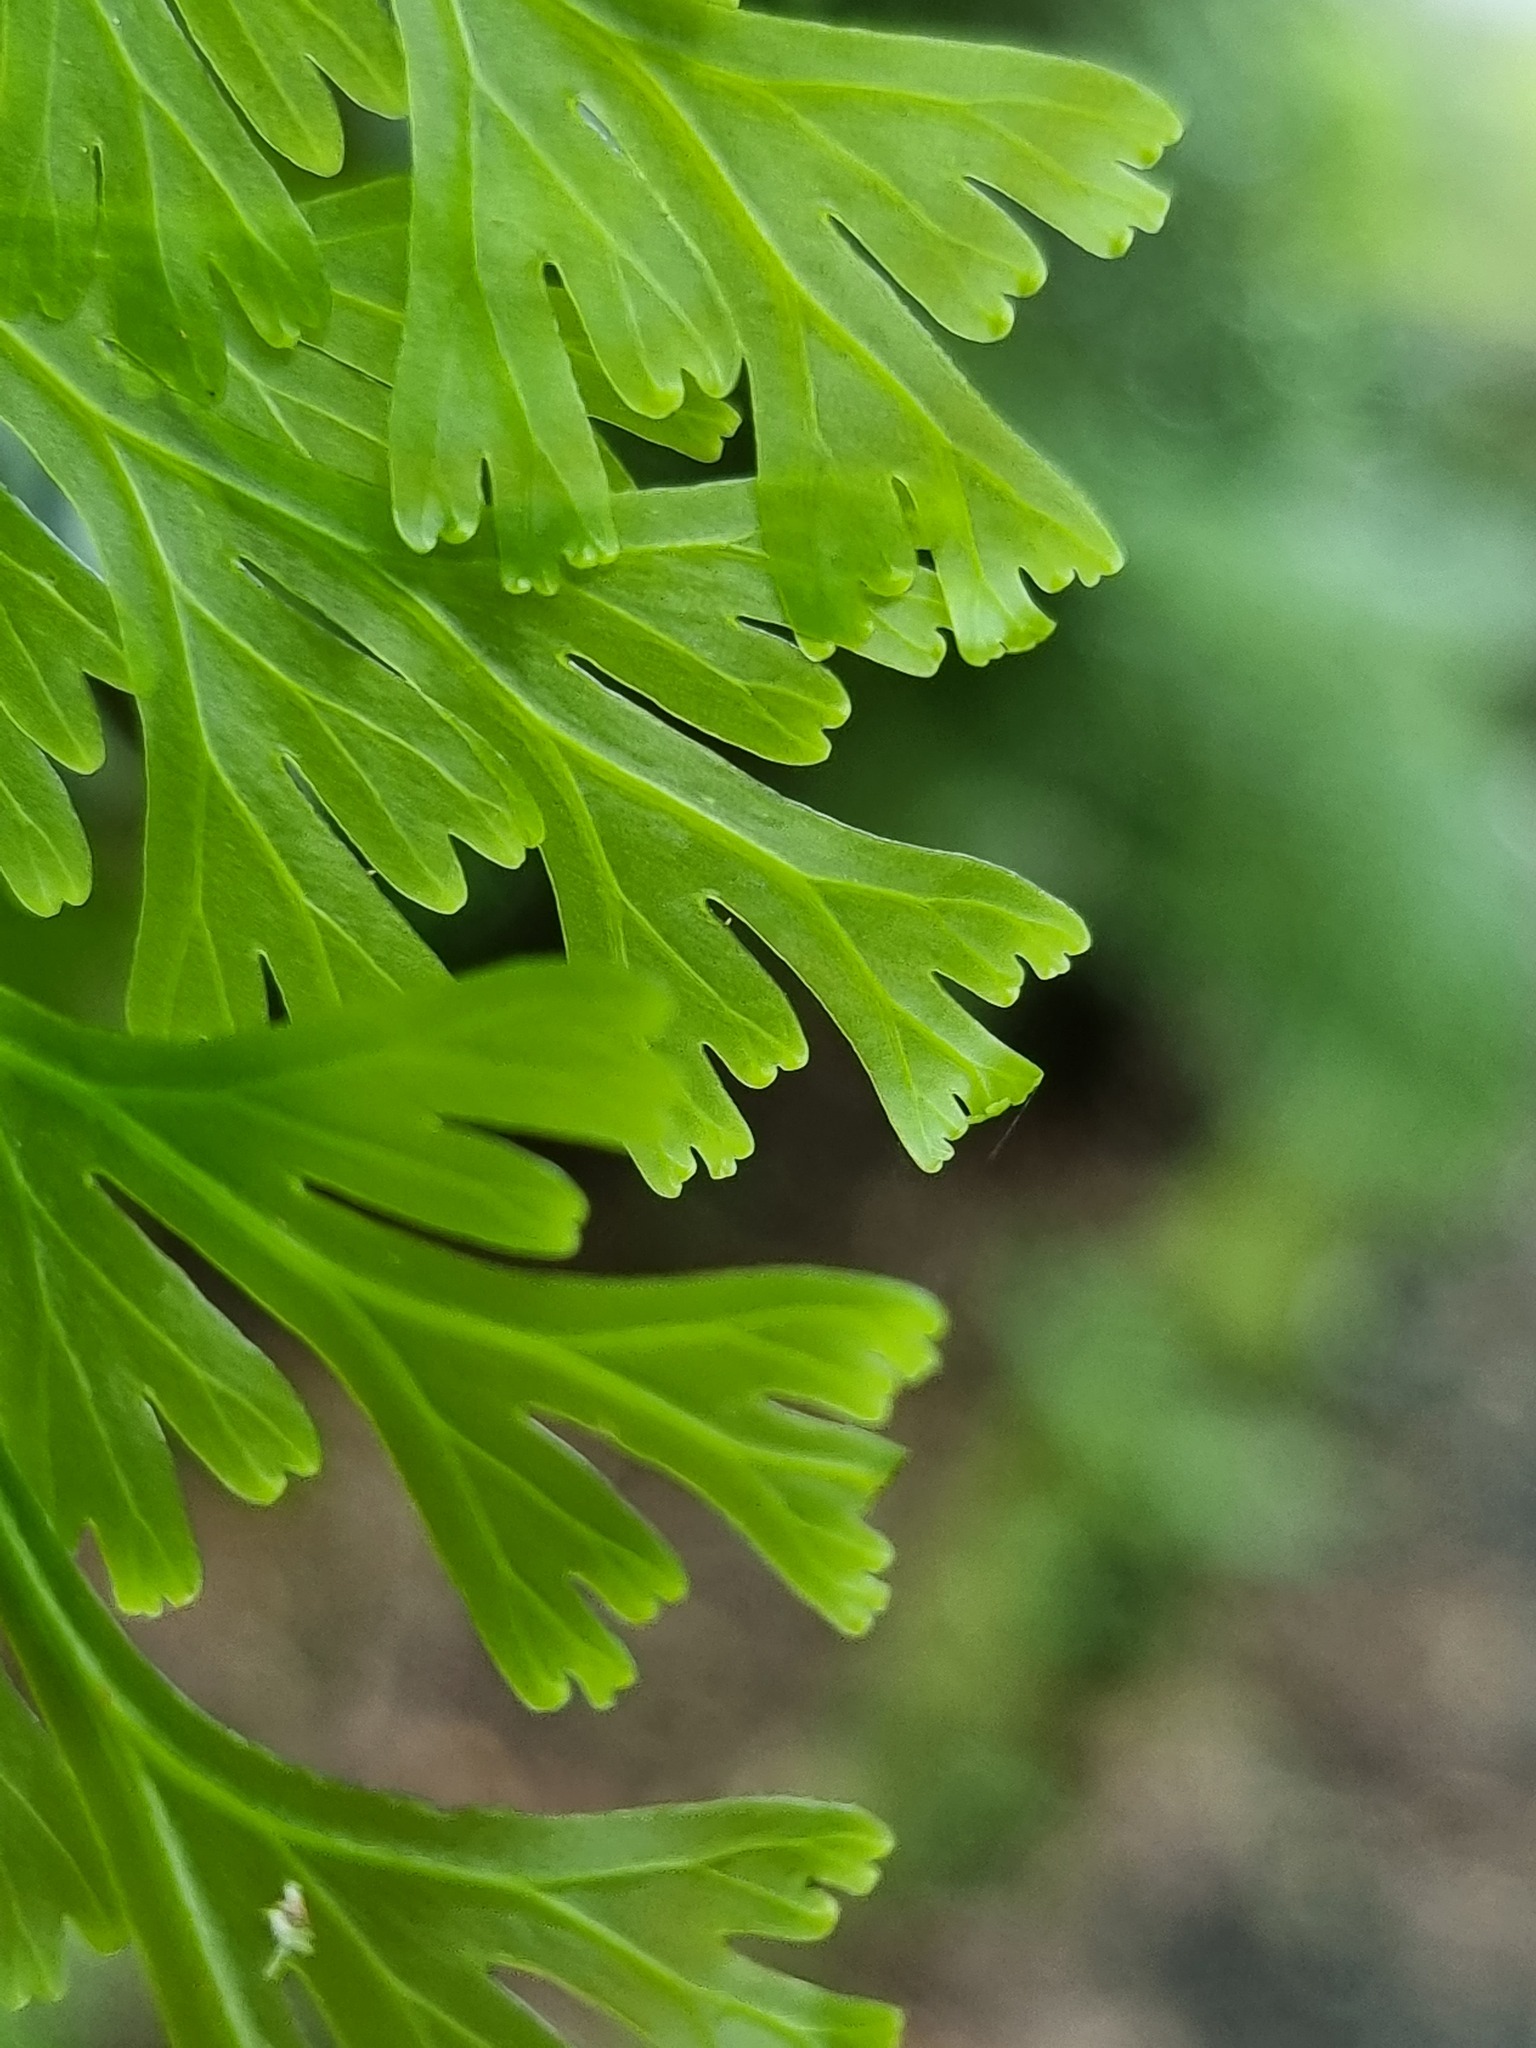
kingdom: Plantae
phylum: Tracheophyta
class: Polypodiopsida
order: Hymenophyllales
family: Hymenophyllaceae
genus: Hymenophyllum
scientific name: Hymenophyllum dilatatum
